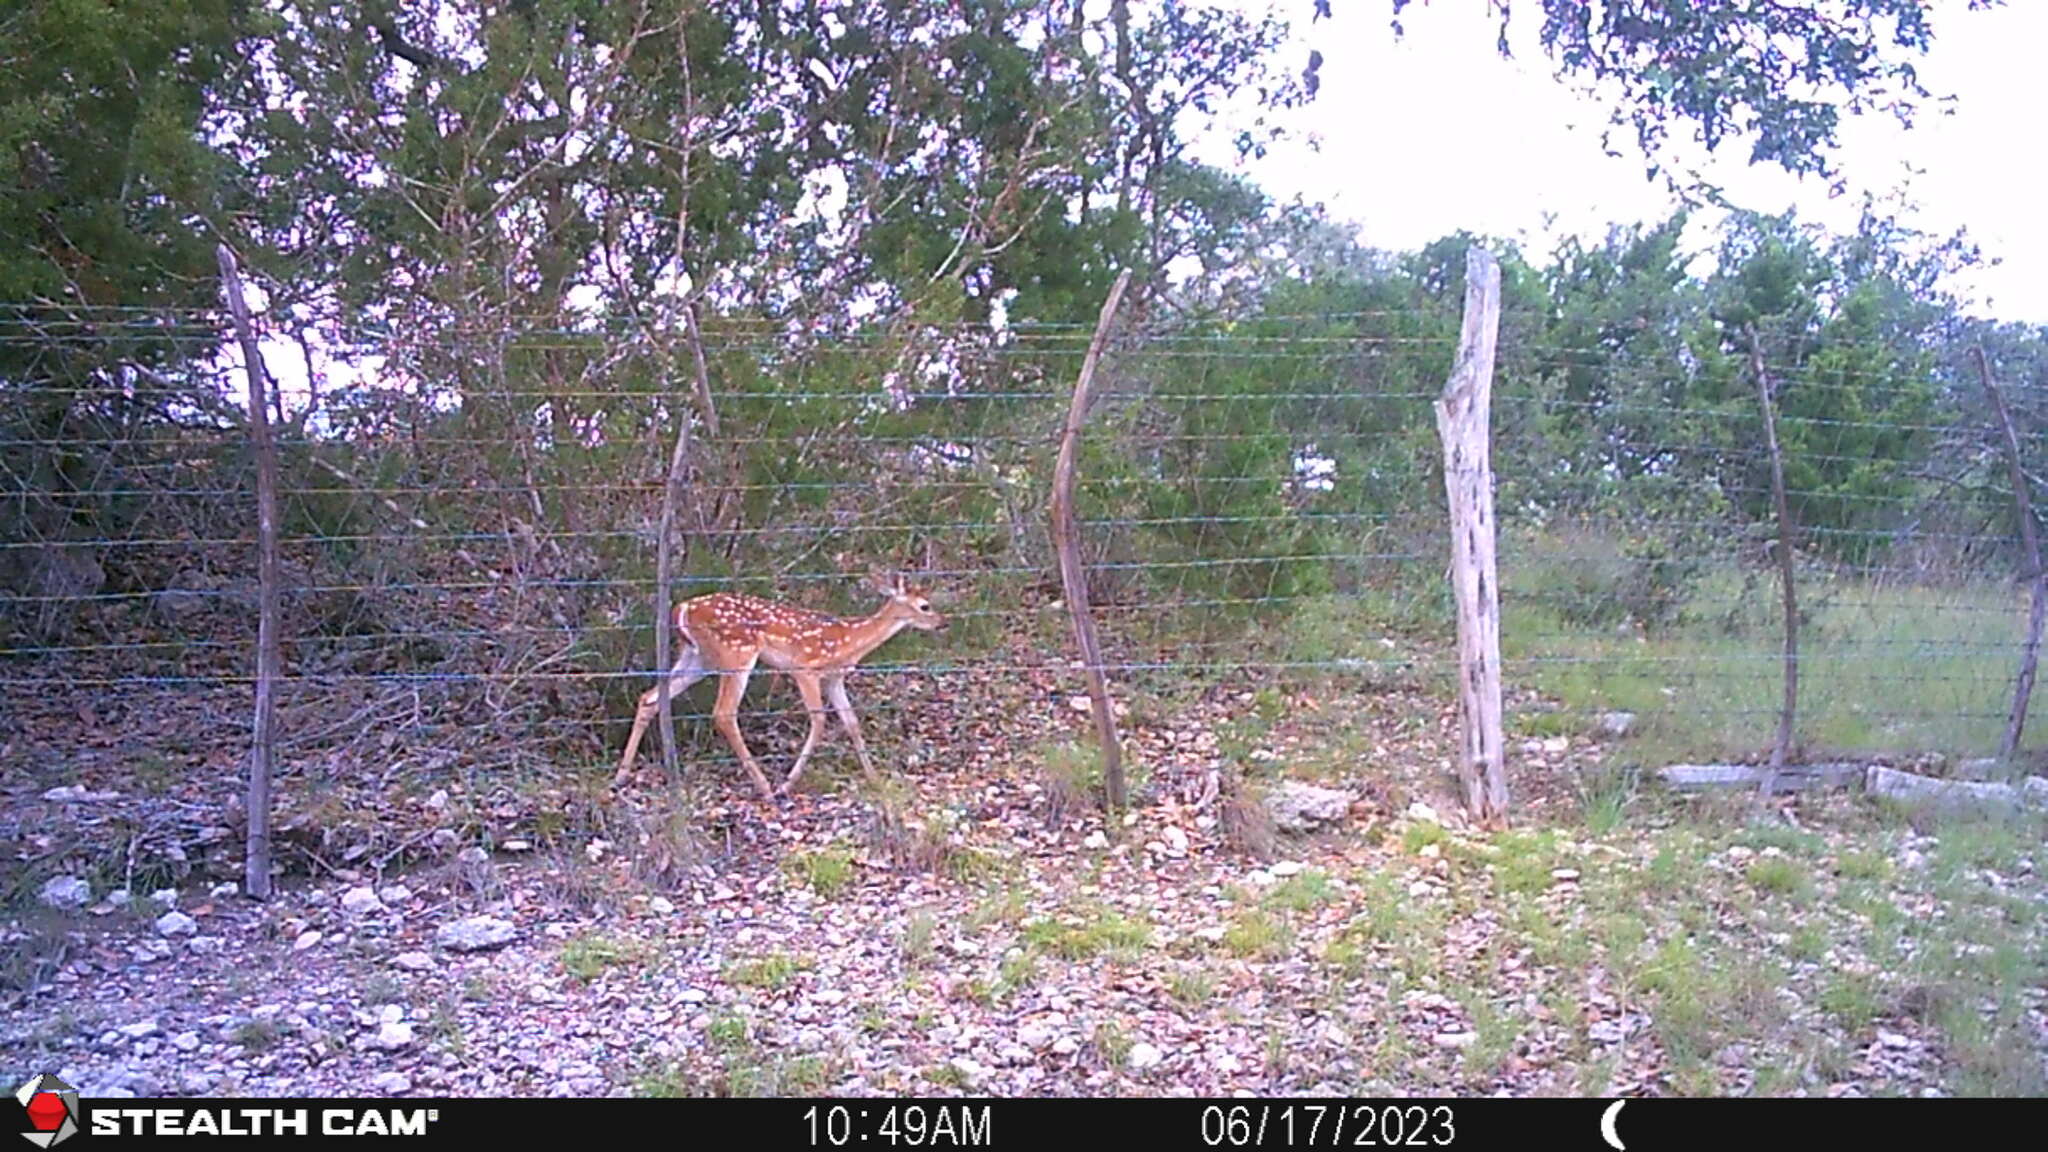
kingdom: Animalia
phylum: Chordata
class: Mammalia
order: Artiodactyla
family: Cervidae
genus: Odocoileus
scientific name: Odocoileus virginianus
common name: White-tailed deer
